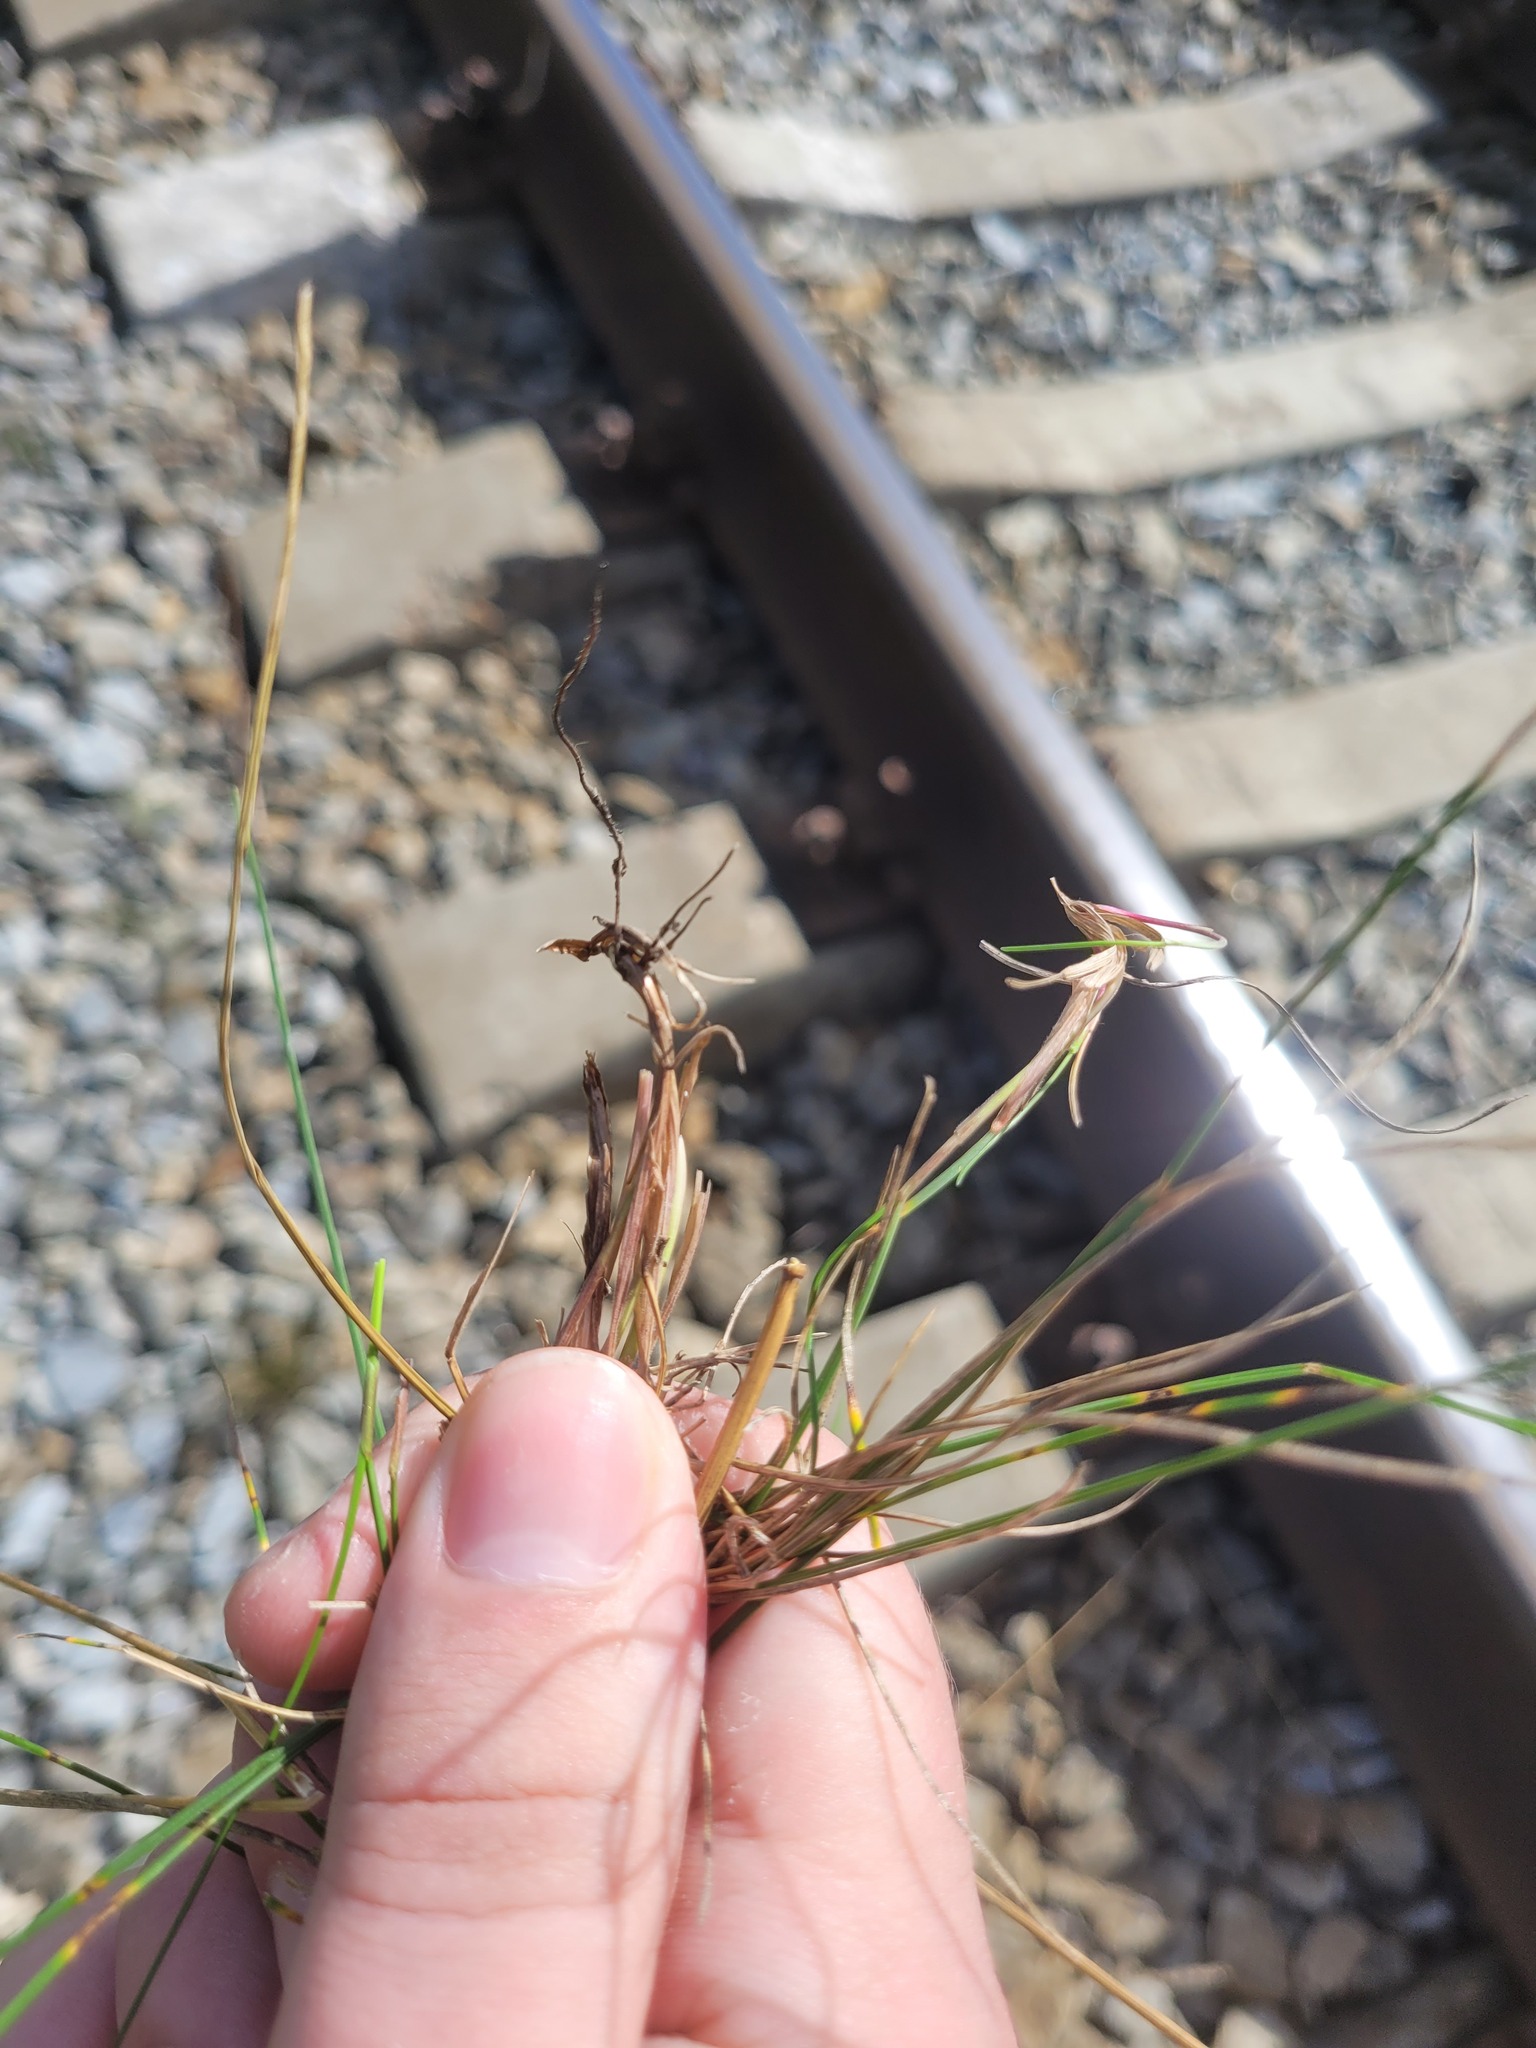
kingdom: Plantae
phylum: Tracheophyta
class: Liliopsida
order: Poales
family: Poaceae
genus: Festuca
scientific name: Festuca rubra
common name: Red fescue
